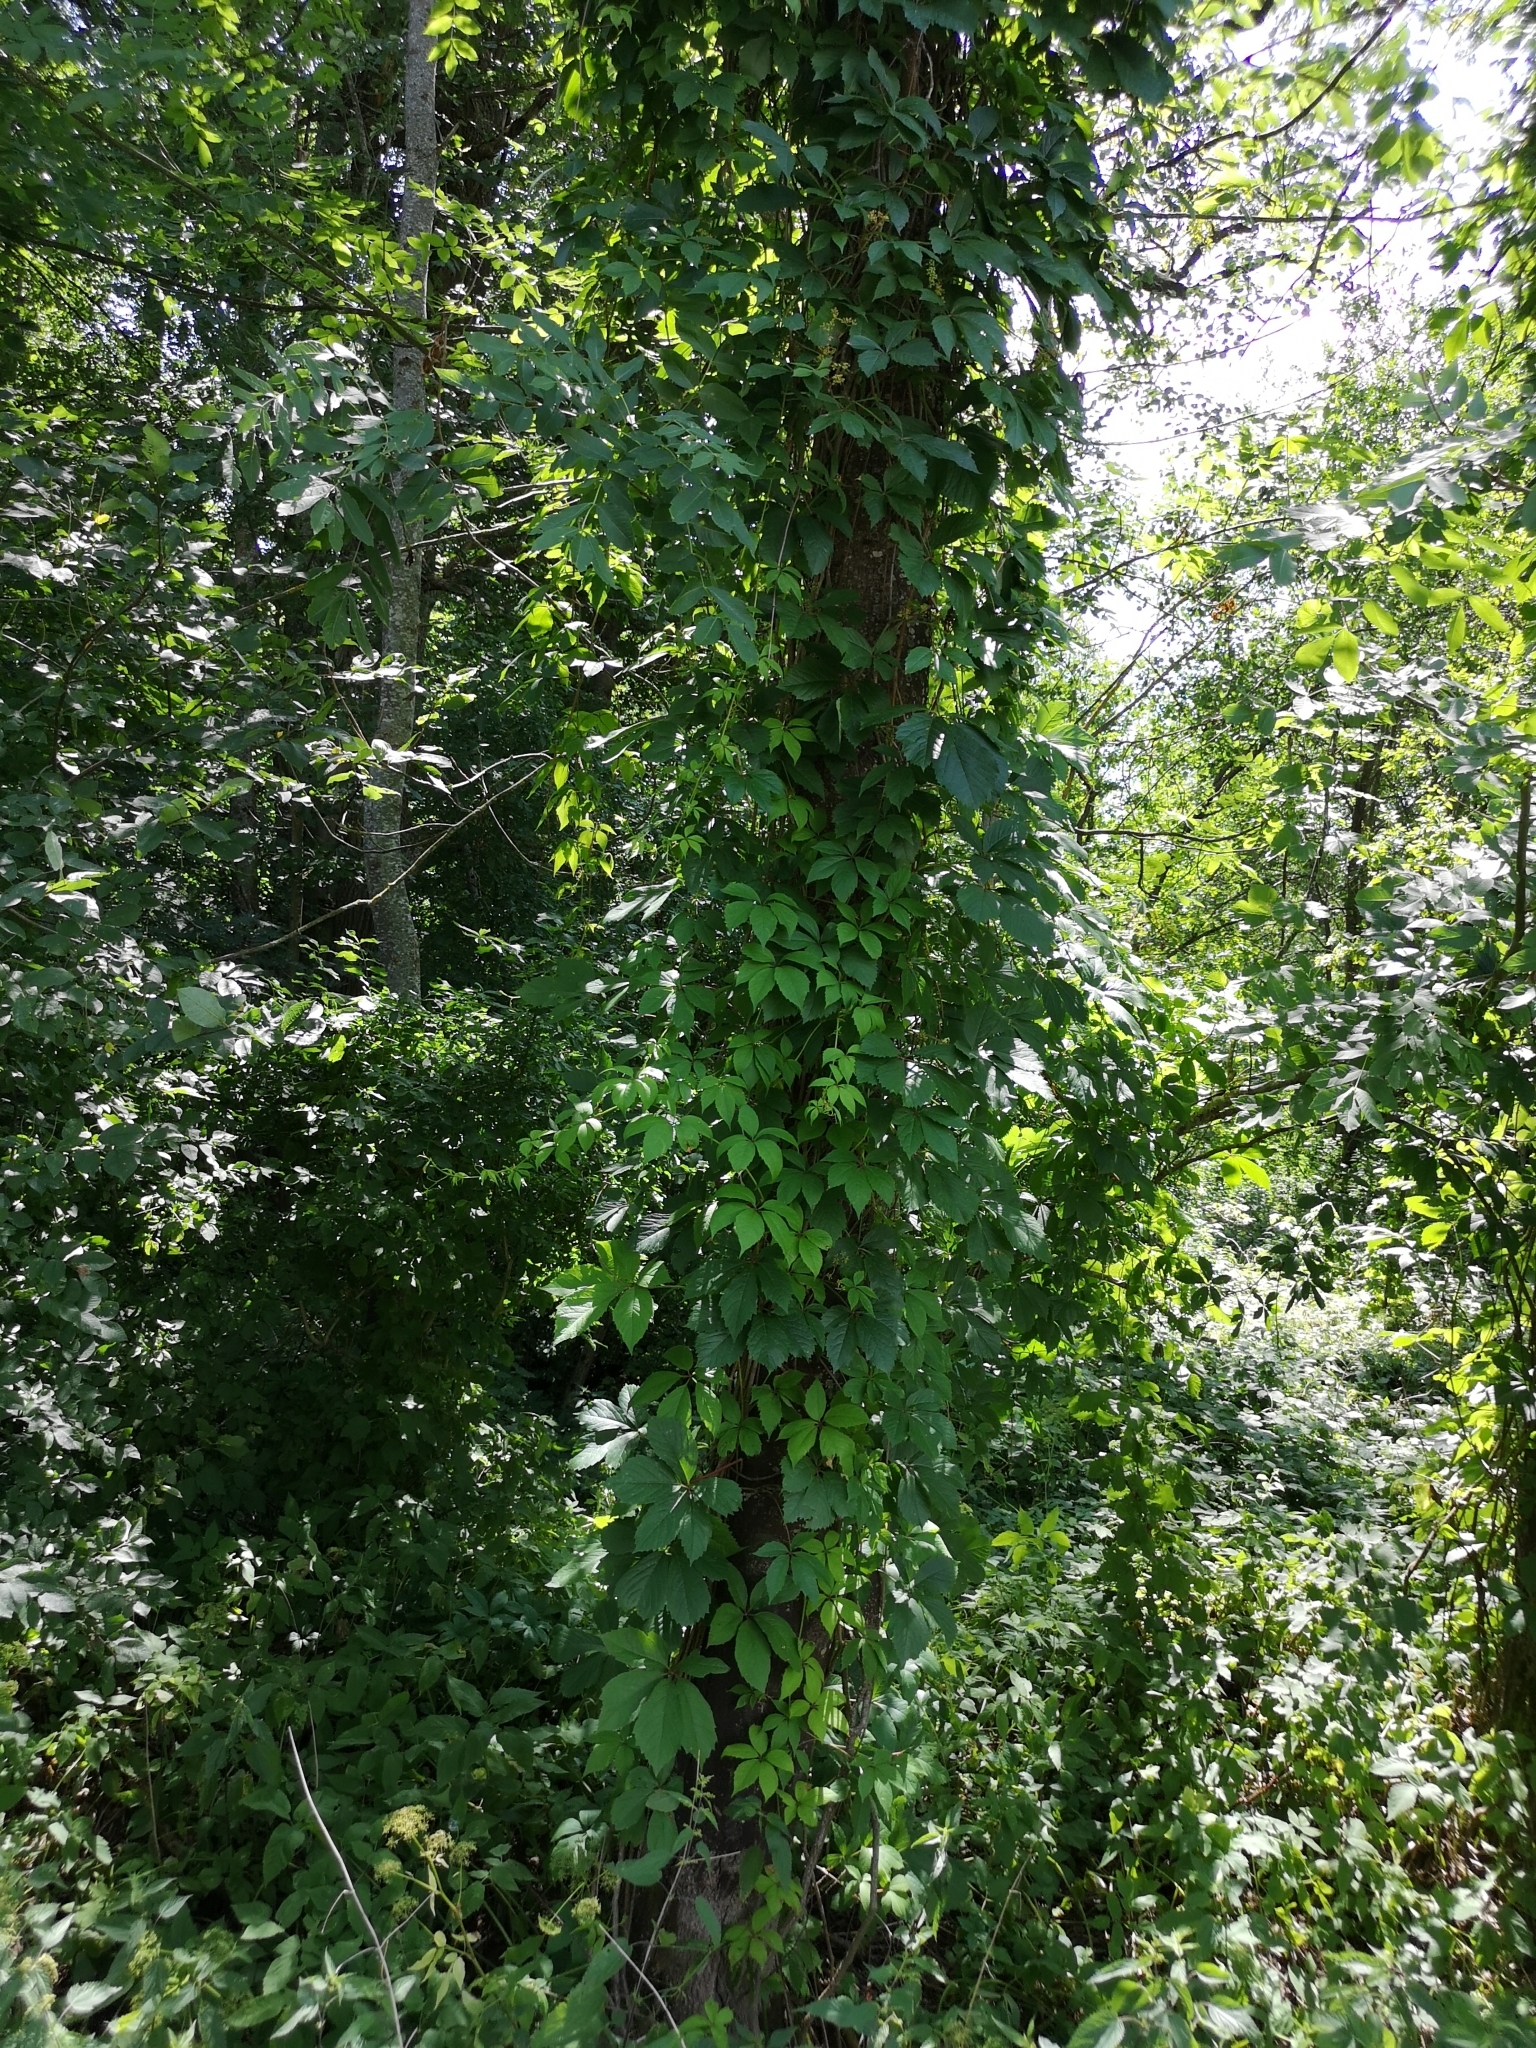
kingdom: Plantae
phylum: Tracheophyta
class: Magnoliopsida
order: Vitales
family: Vitaceae
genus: Parthenocissus
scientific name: Parthenocissus inserta
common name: False virginia-creeper
